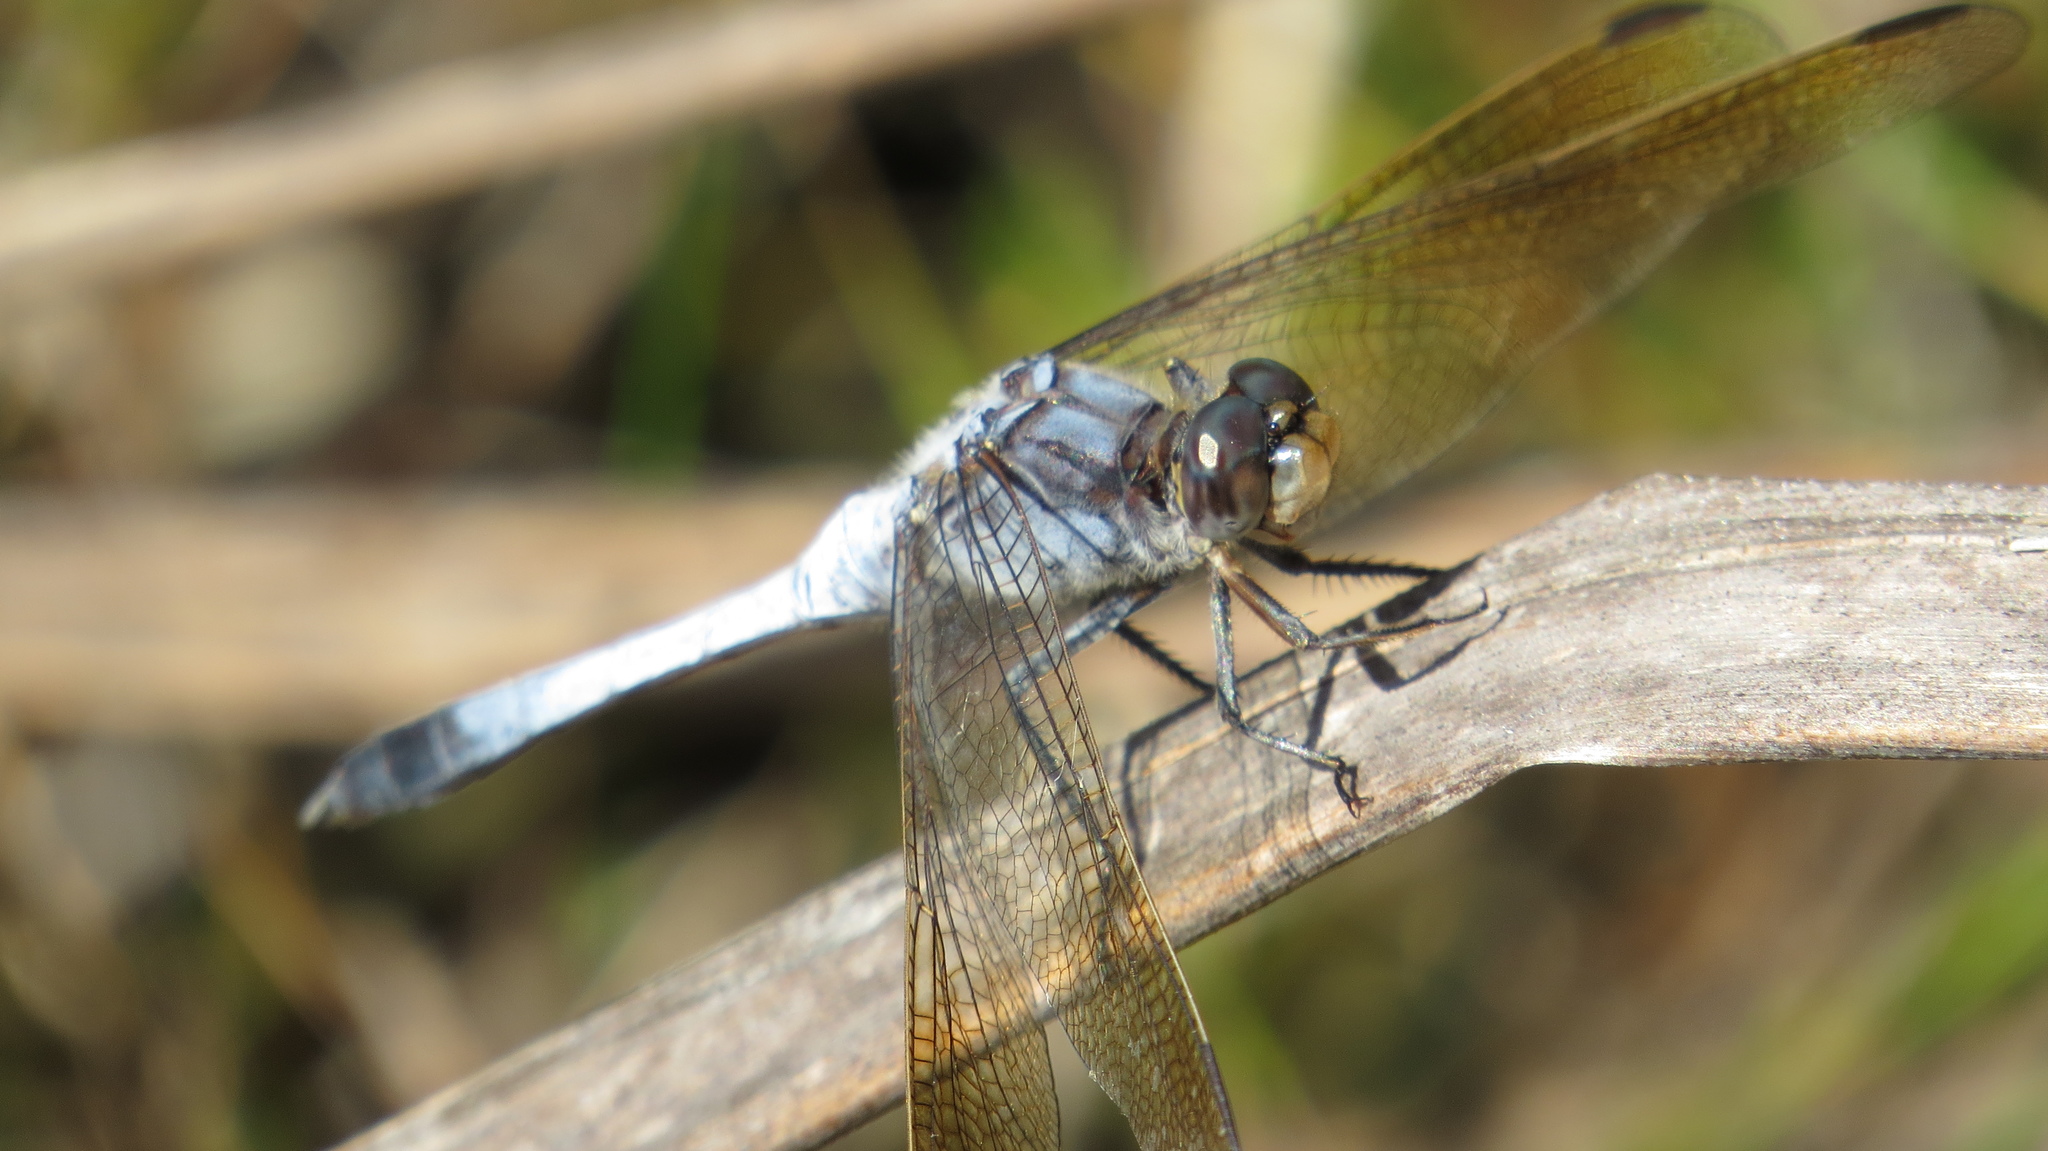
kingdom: Animalia
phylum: Arthropoda
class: Insecta
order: Odonata
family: Libellulidae
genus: Orthetrum
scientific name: Orthetrum caledonicum
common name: Blue skimmer
